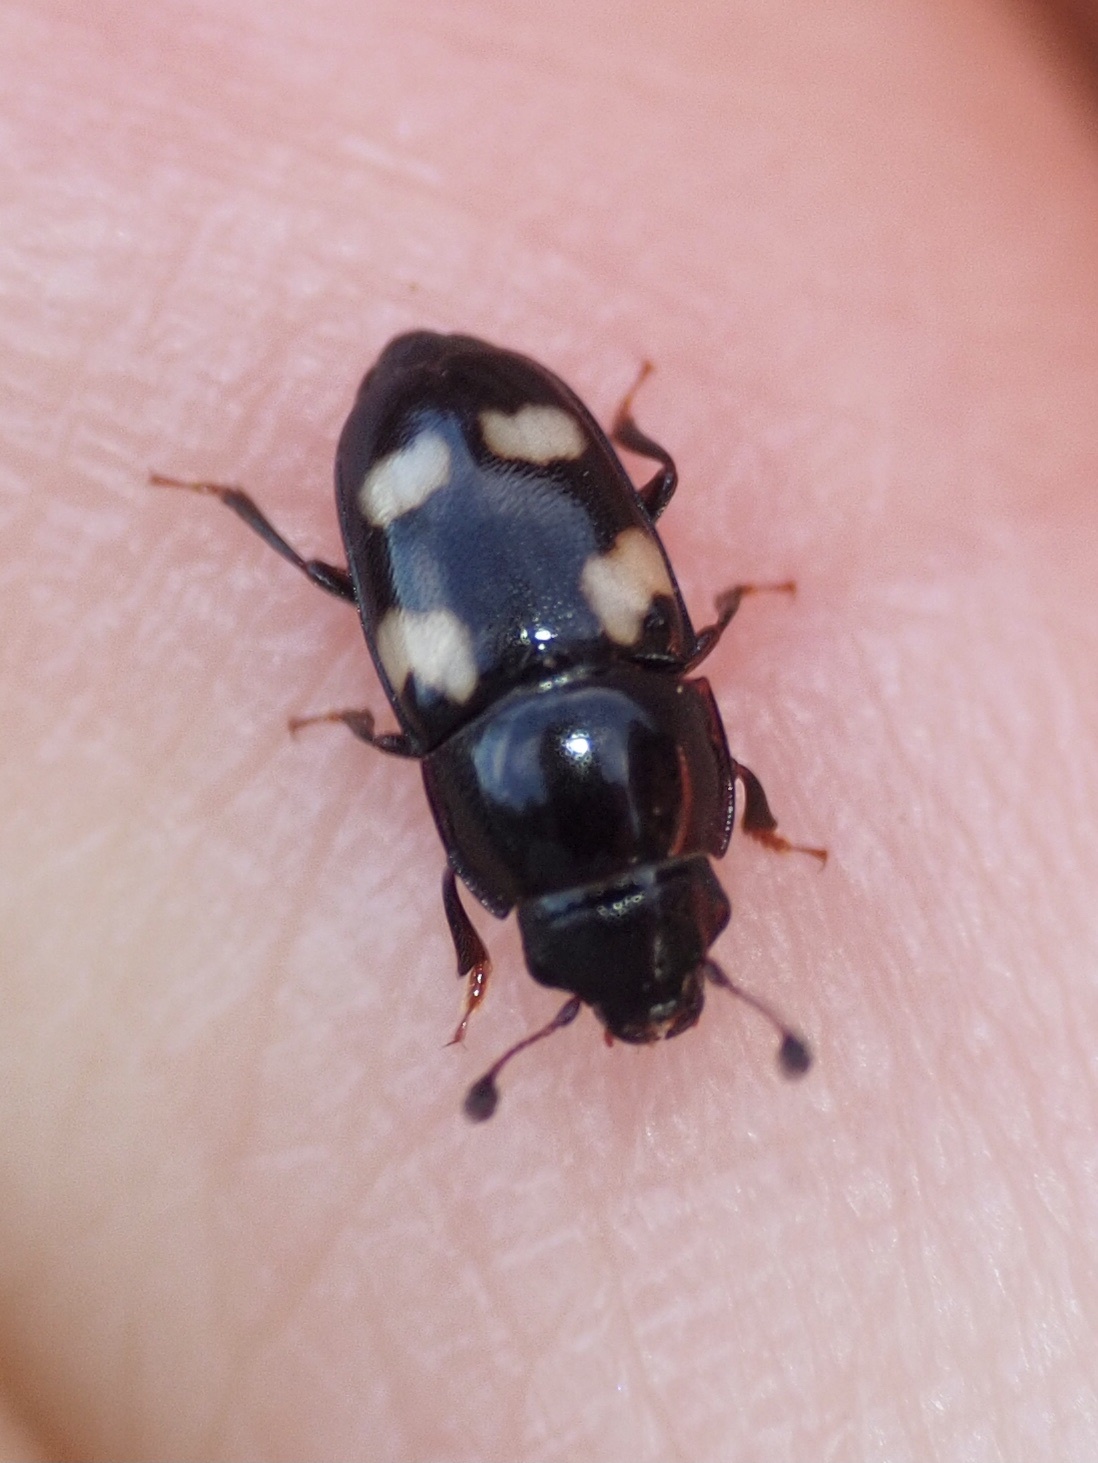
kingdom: Animalia
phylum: Arthropoda
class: Insecta
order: Coleoptera
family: Nitidulidae
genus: Glischrochilus
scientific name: Glischrochilus quadrisignatus
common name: Picnic beetle
